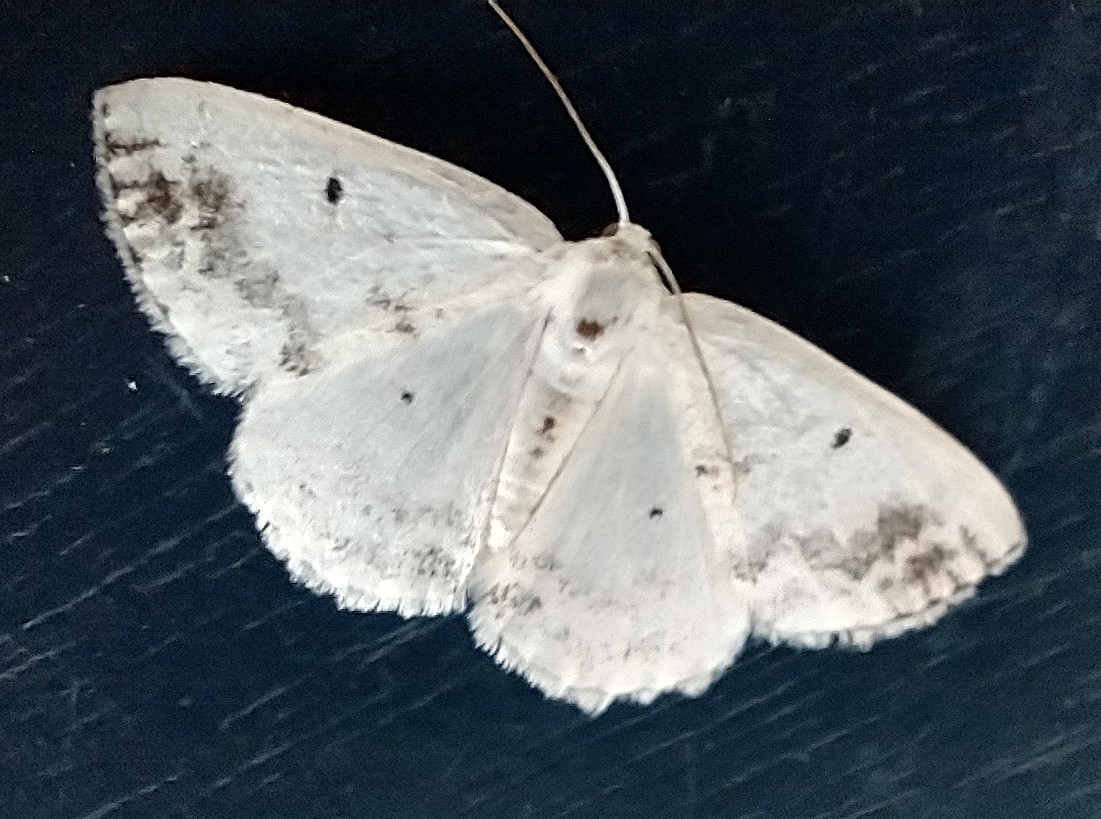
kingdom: Animalia
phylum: Arthropoda
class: Insecta
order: Lepidoptera
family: Geometridae
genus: Lomographa
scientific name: Lomographa temerata
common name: Clouded silver
